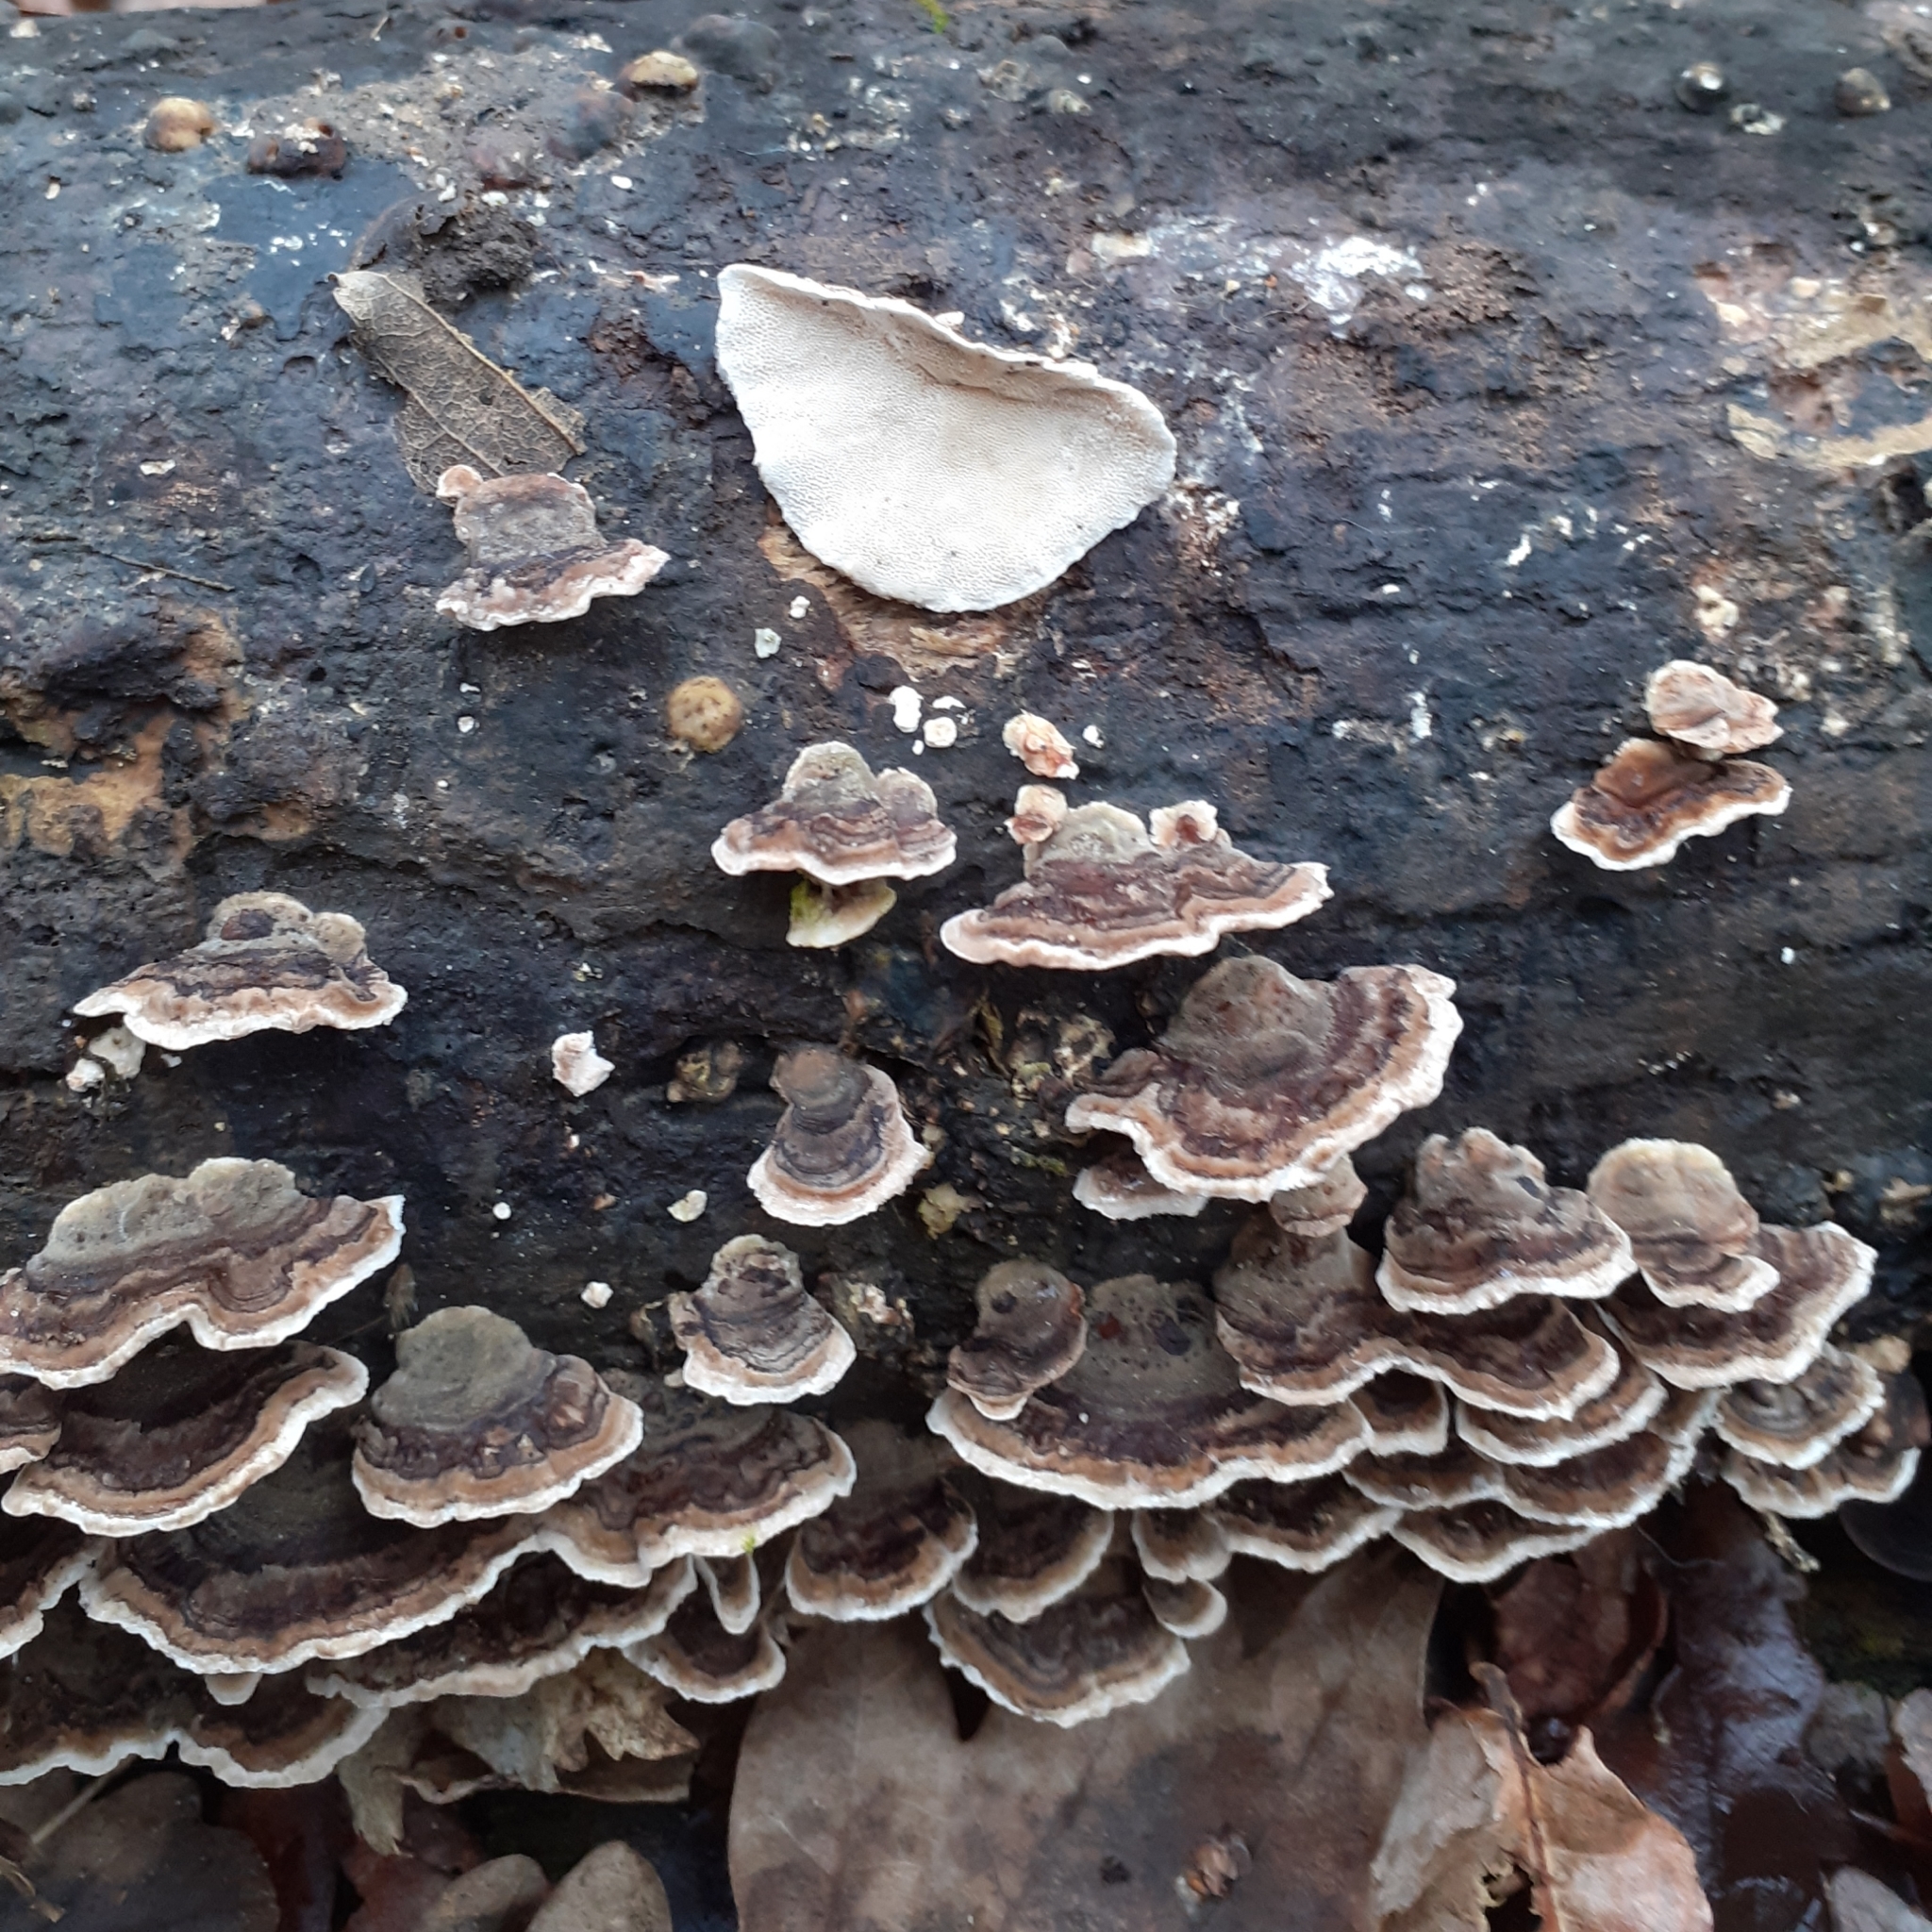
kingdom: Fungi
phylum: Basidiomycota
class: Agaricomycetes
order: Polyporales
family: Polyporaceae
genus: Trametes
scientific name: Trametes versicolor
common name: Turkeytail
